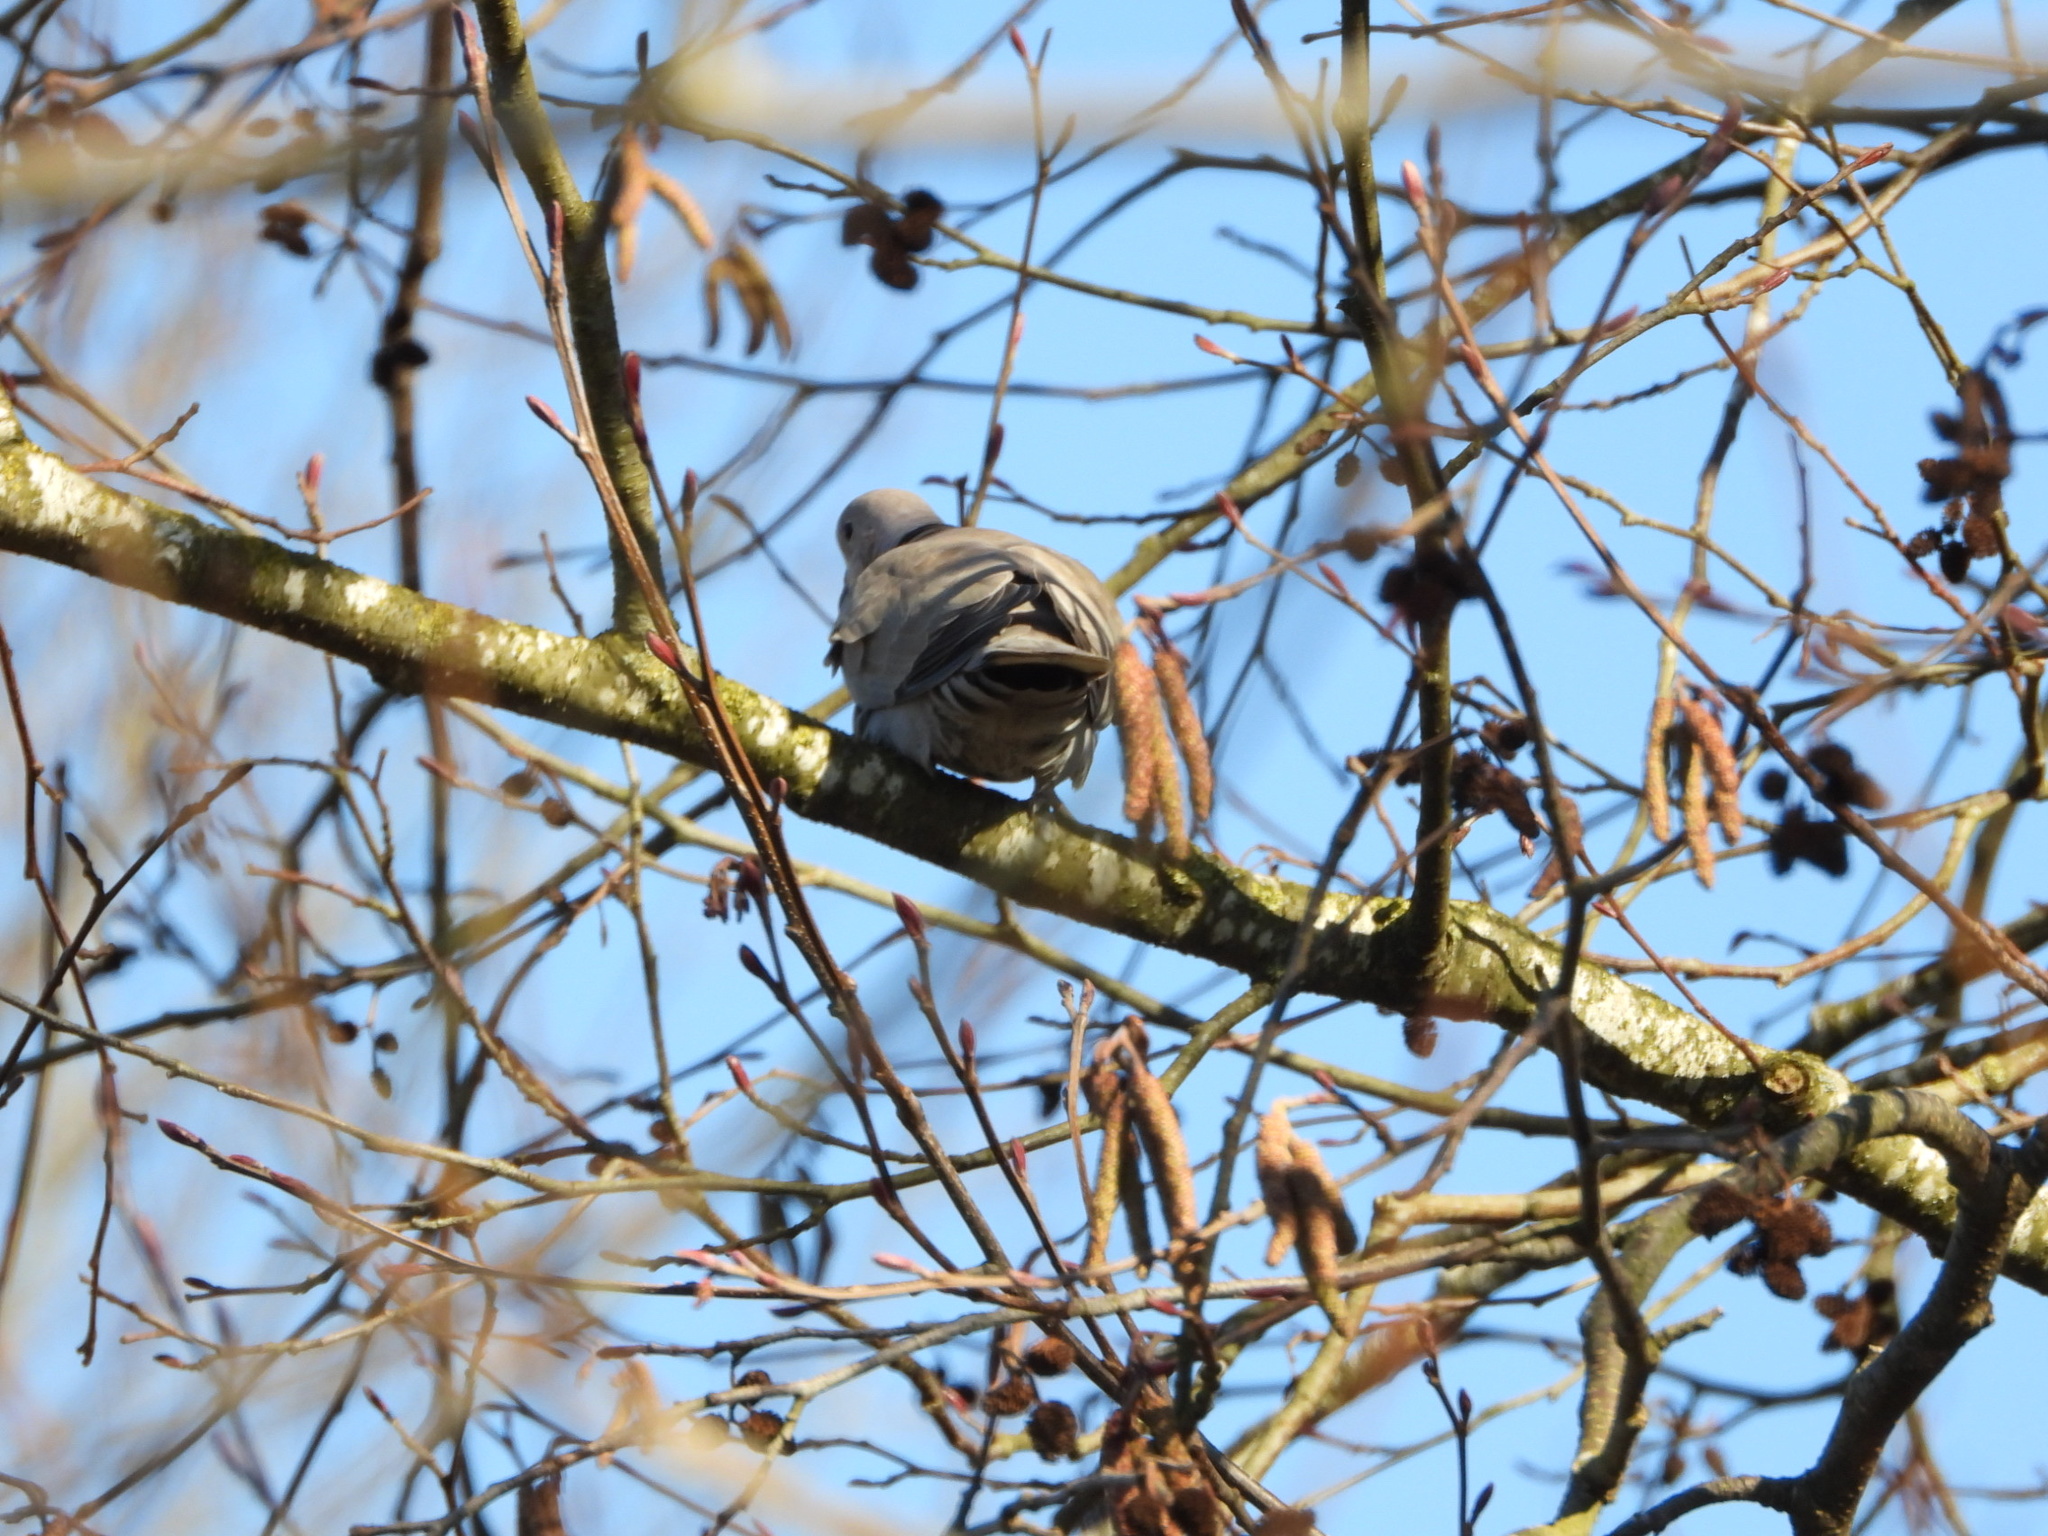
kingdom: Animalia
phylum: Chordata
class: Aves
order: Columbiformes
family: Columbidae
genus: Streptopelia
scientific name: Streptopelia decaocto
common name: Eurasian collared dove
